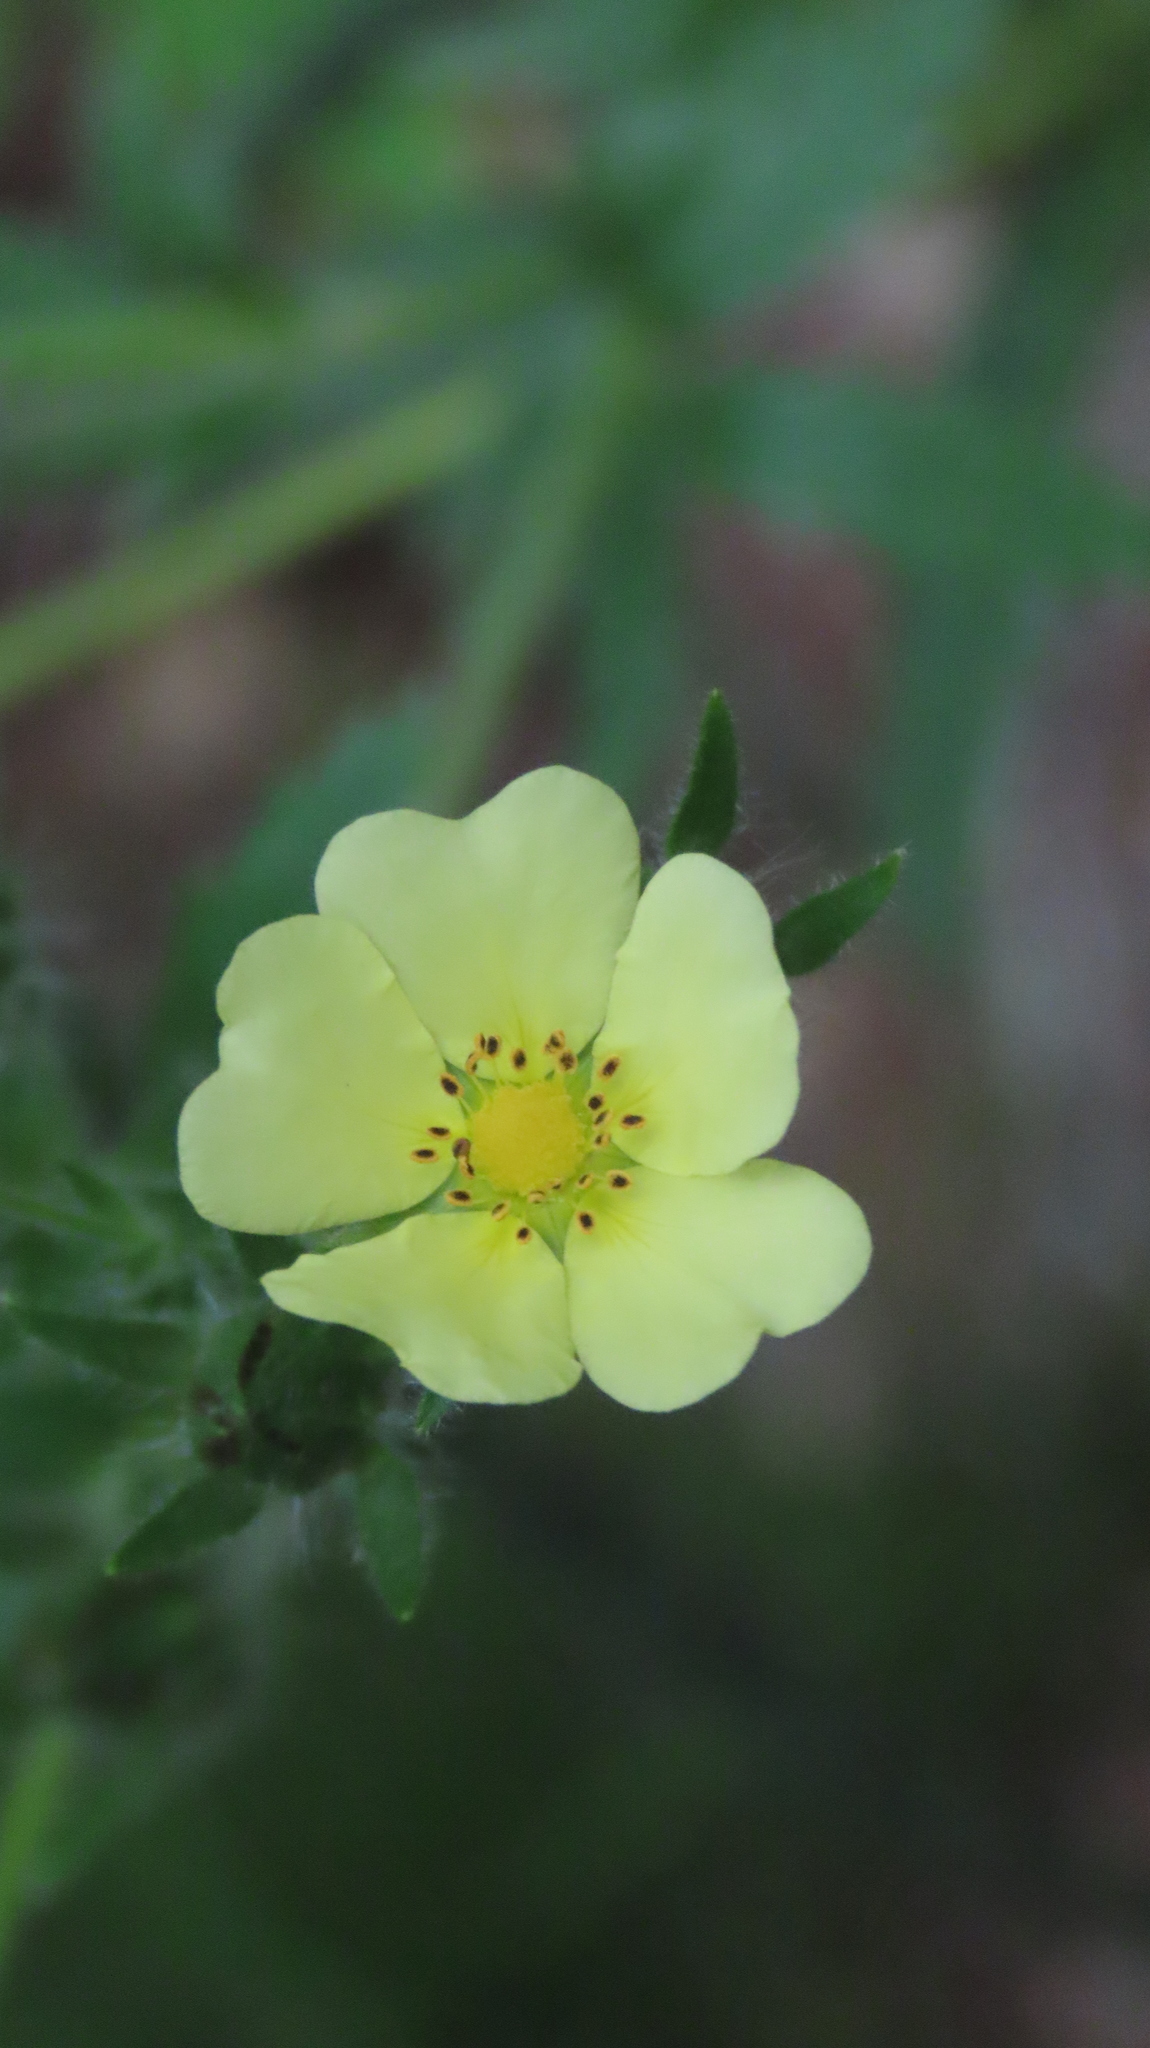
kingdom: Plantae
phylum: Tracheophyta
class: Magnoliopsida
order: Rosales
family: Rosaceae
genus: Potentilla
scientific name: Potentilla recta
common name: Sulphur cinquefoil
